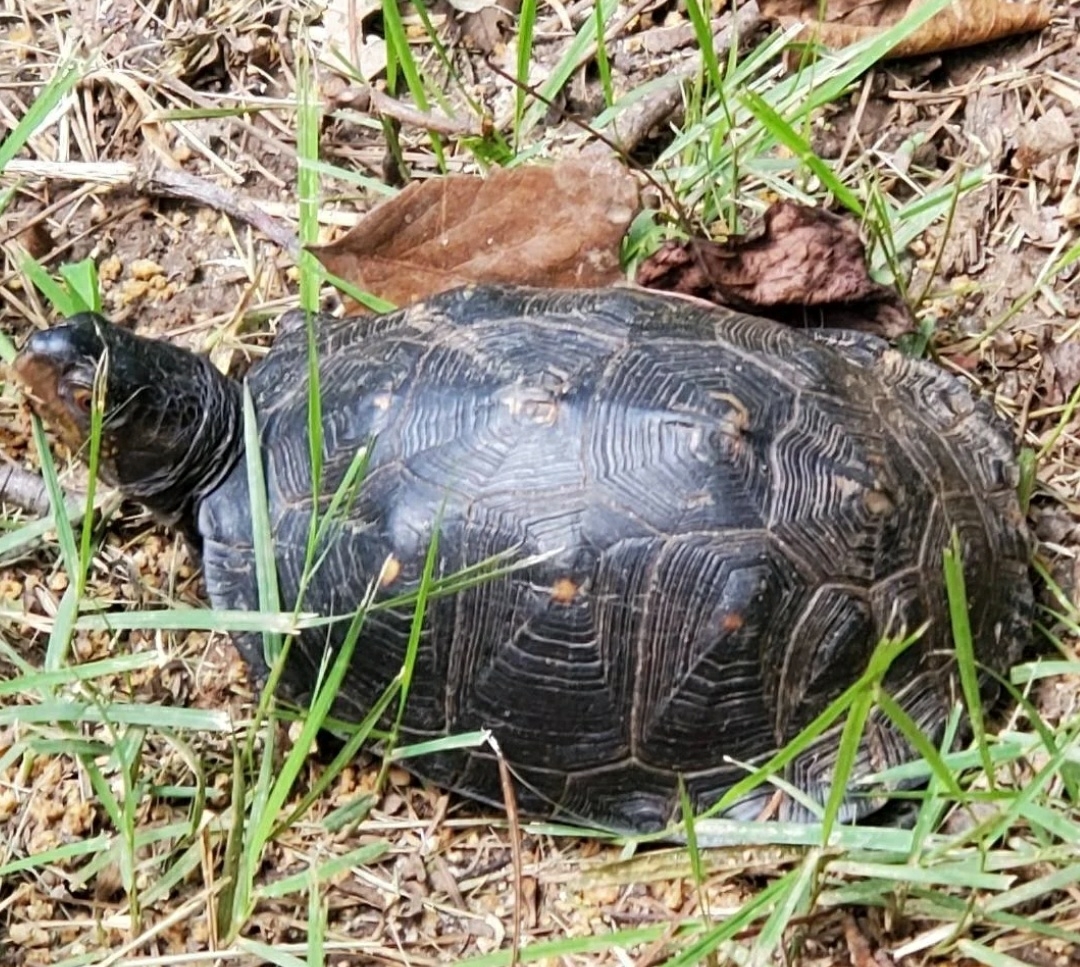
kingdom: Animalia
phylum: Chordata
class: Testudines
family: Emydidae
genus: Terrapene
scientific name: Terrapene carolina
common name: Common box turtle
